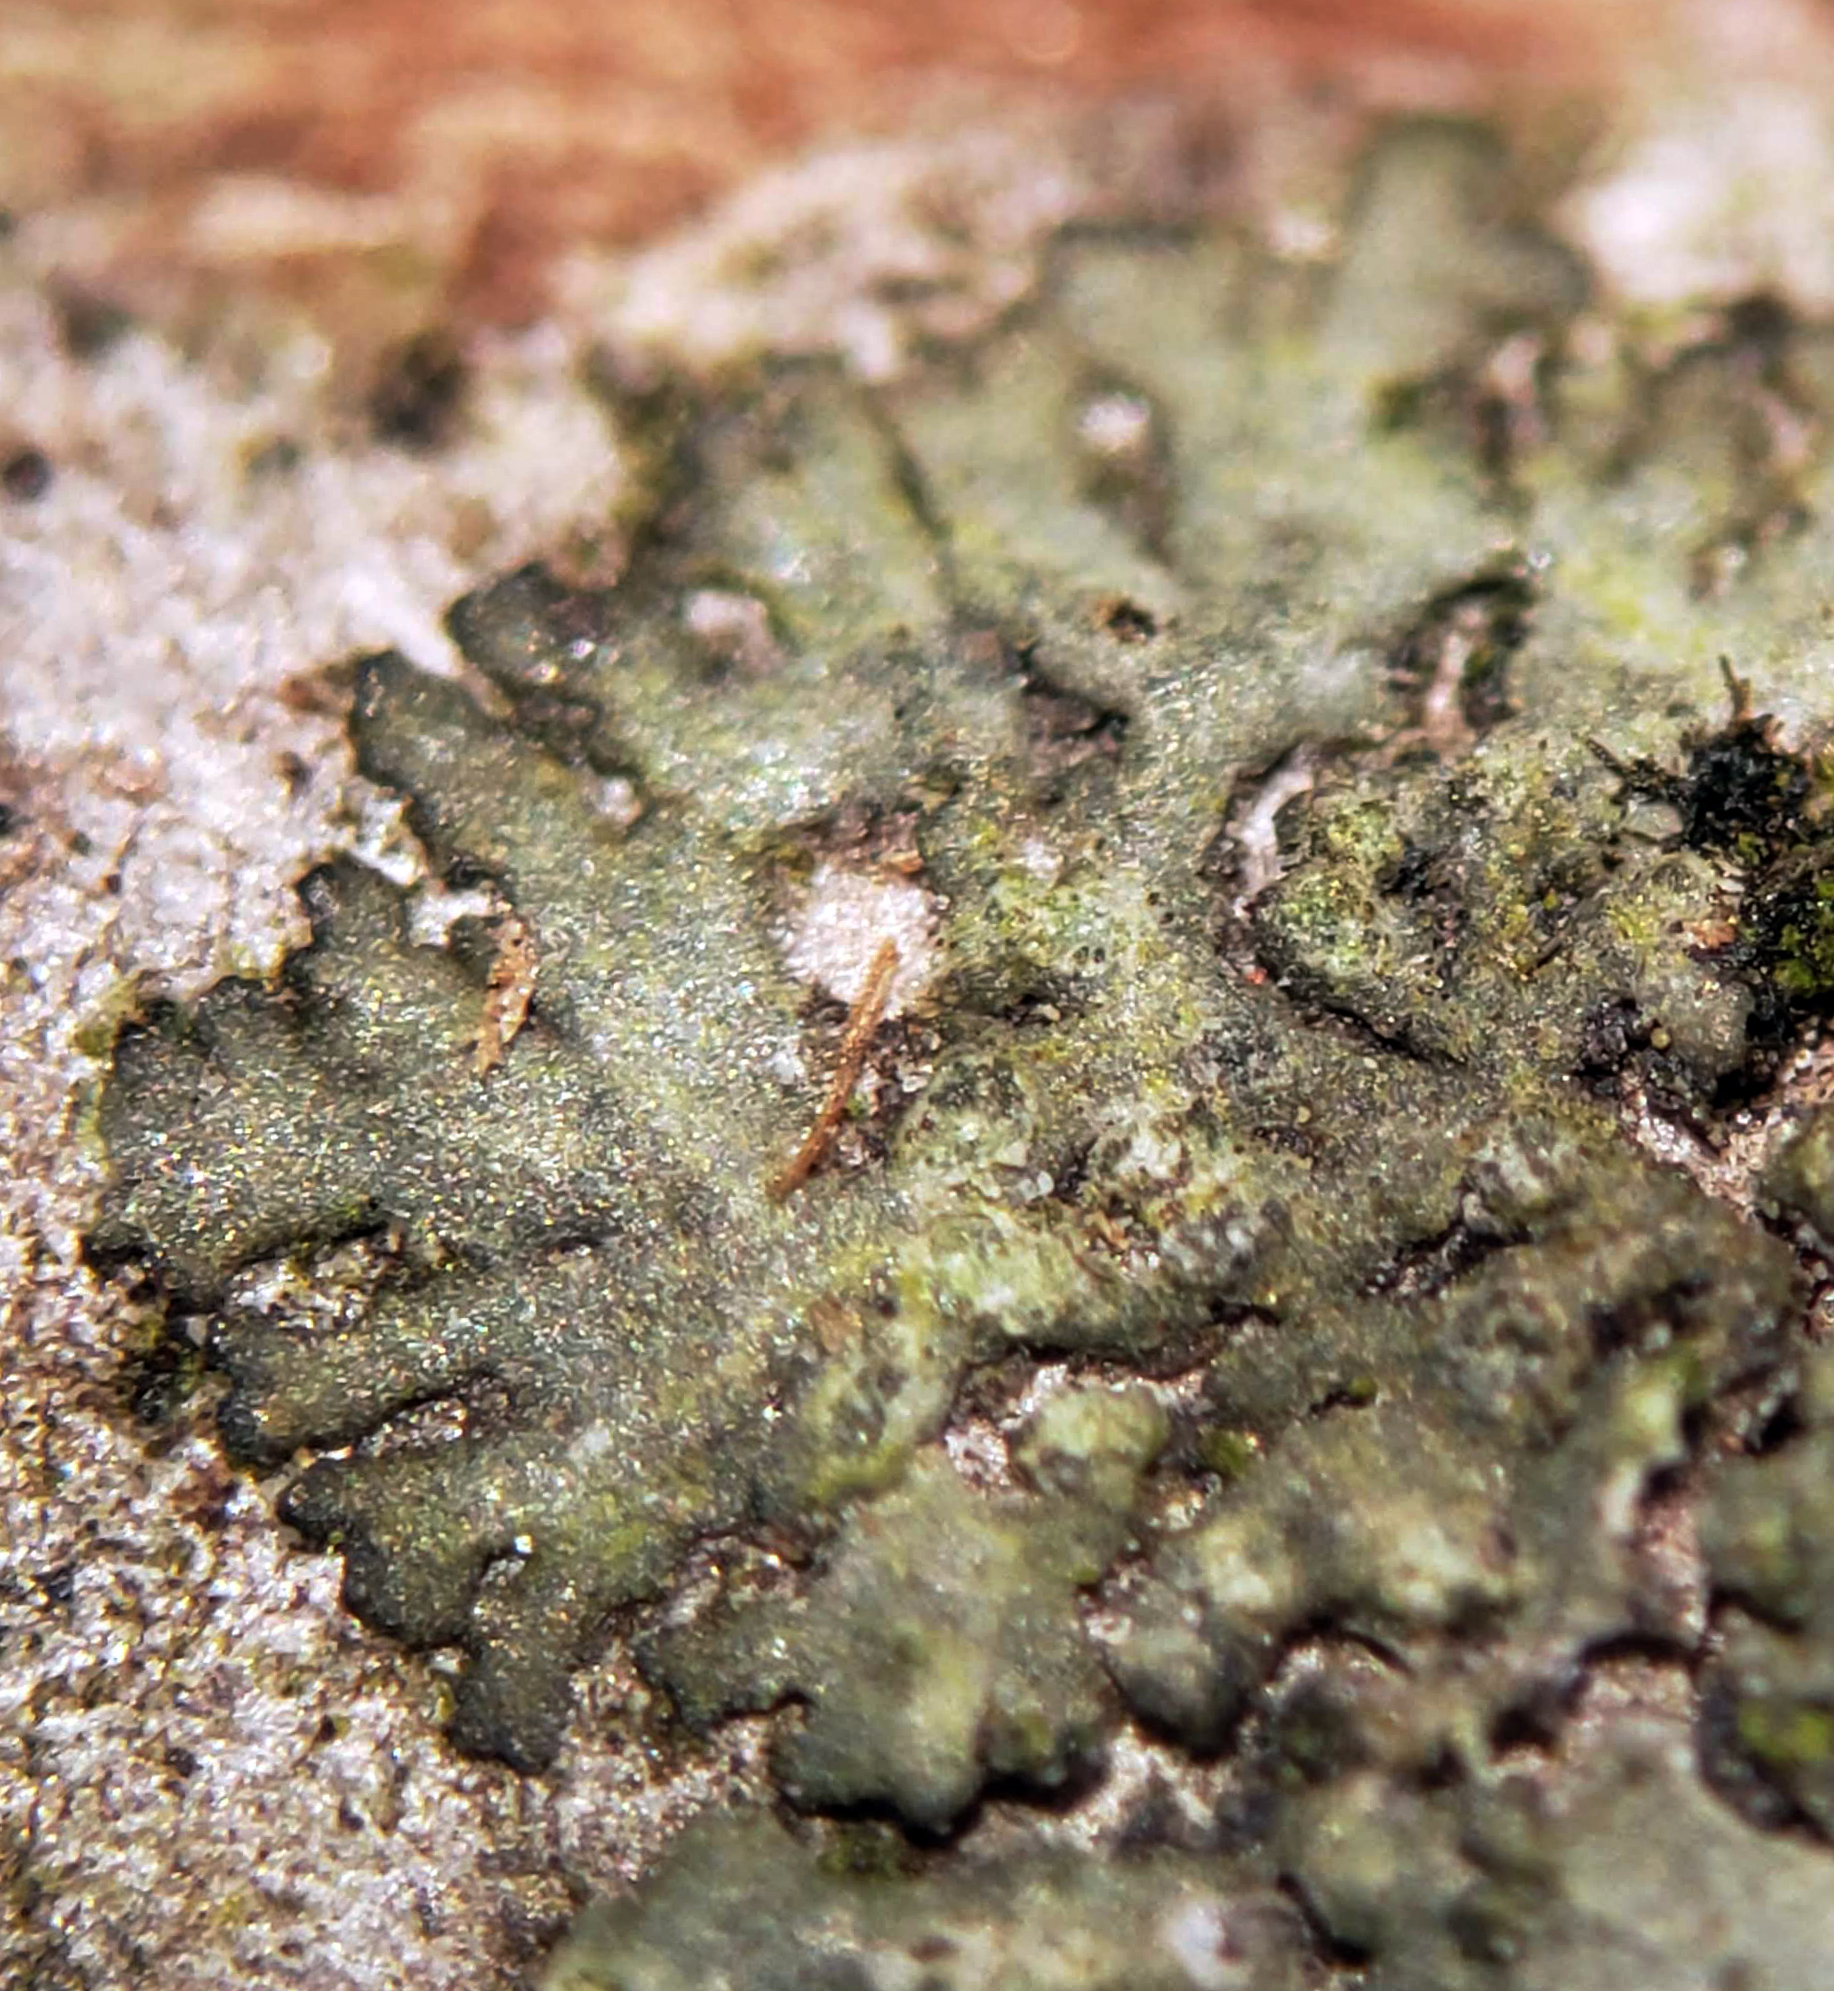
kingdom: Fungi
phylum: Ascomycota
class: Lecanoromycetes
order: Caliciales
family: Physciaceae
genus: Hyperphyscia
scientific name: Hyperphyscia adglutinata
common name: Grainy shadow-crust lichen
